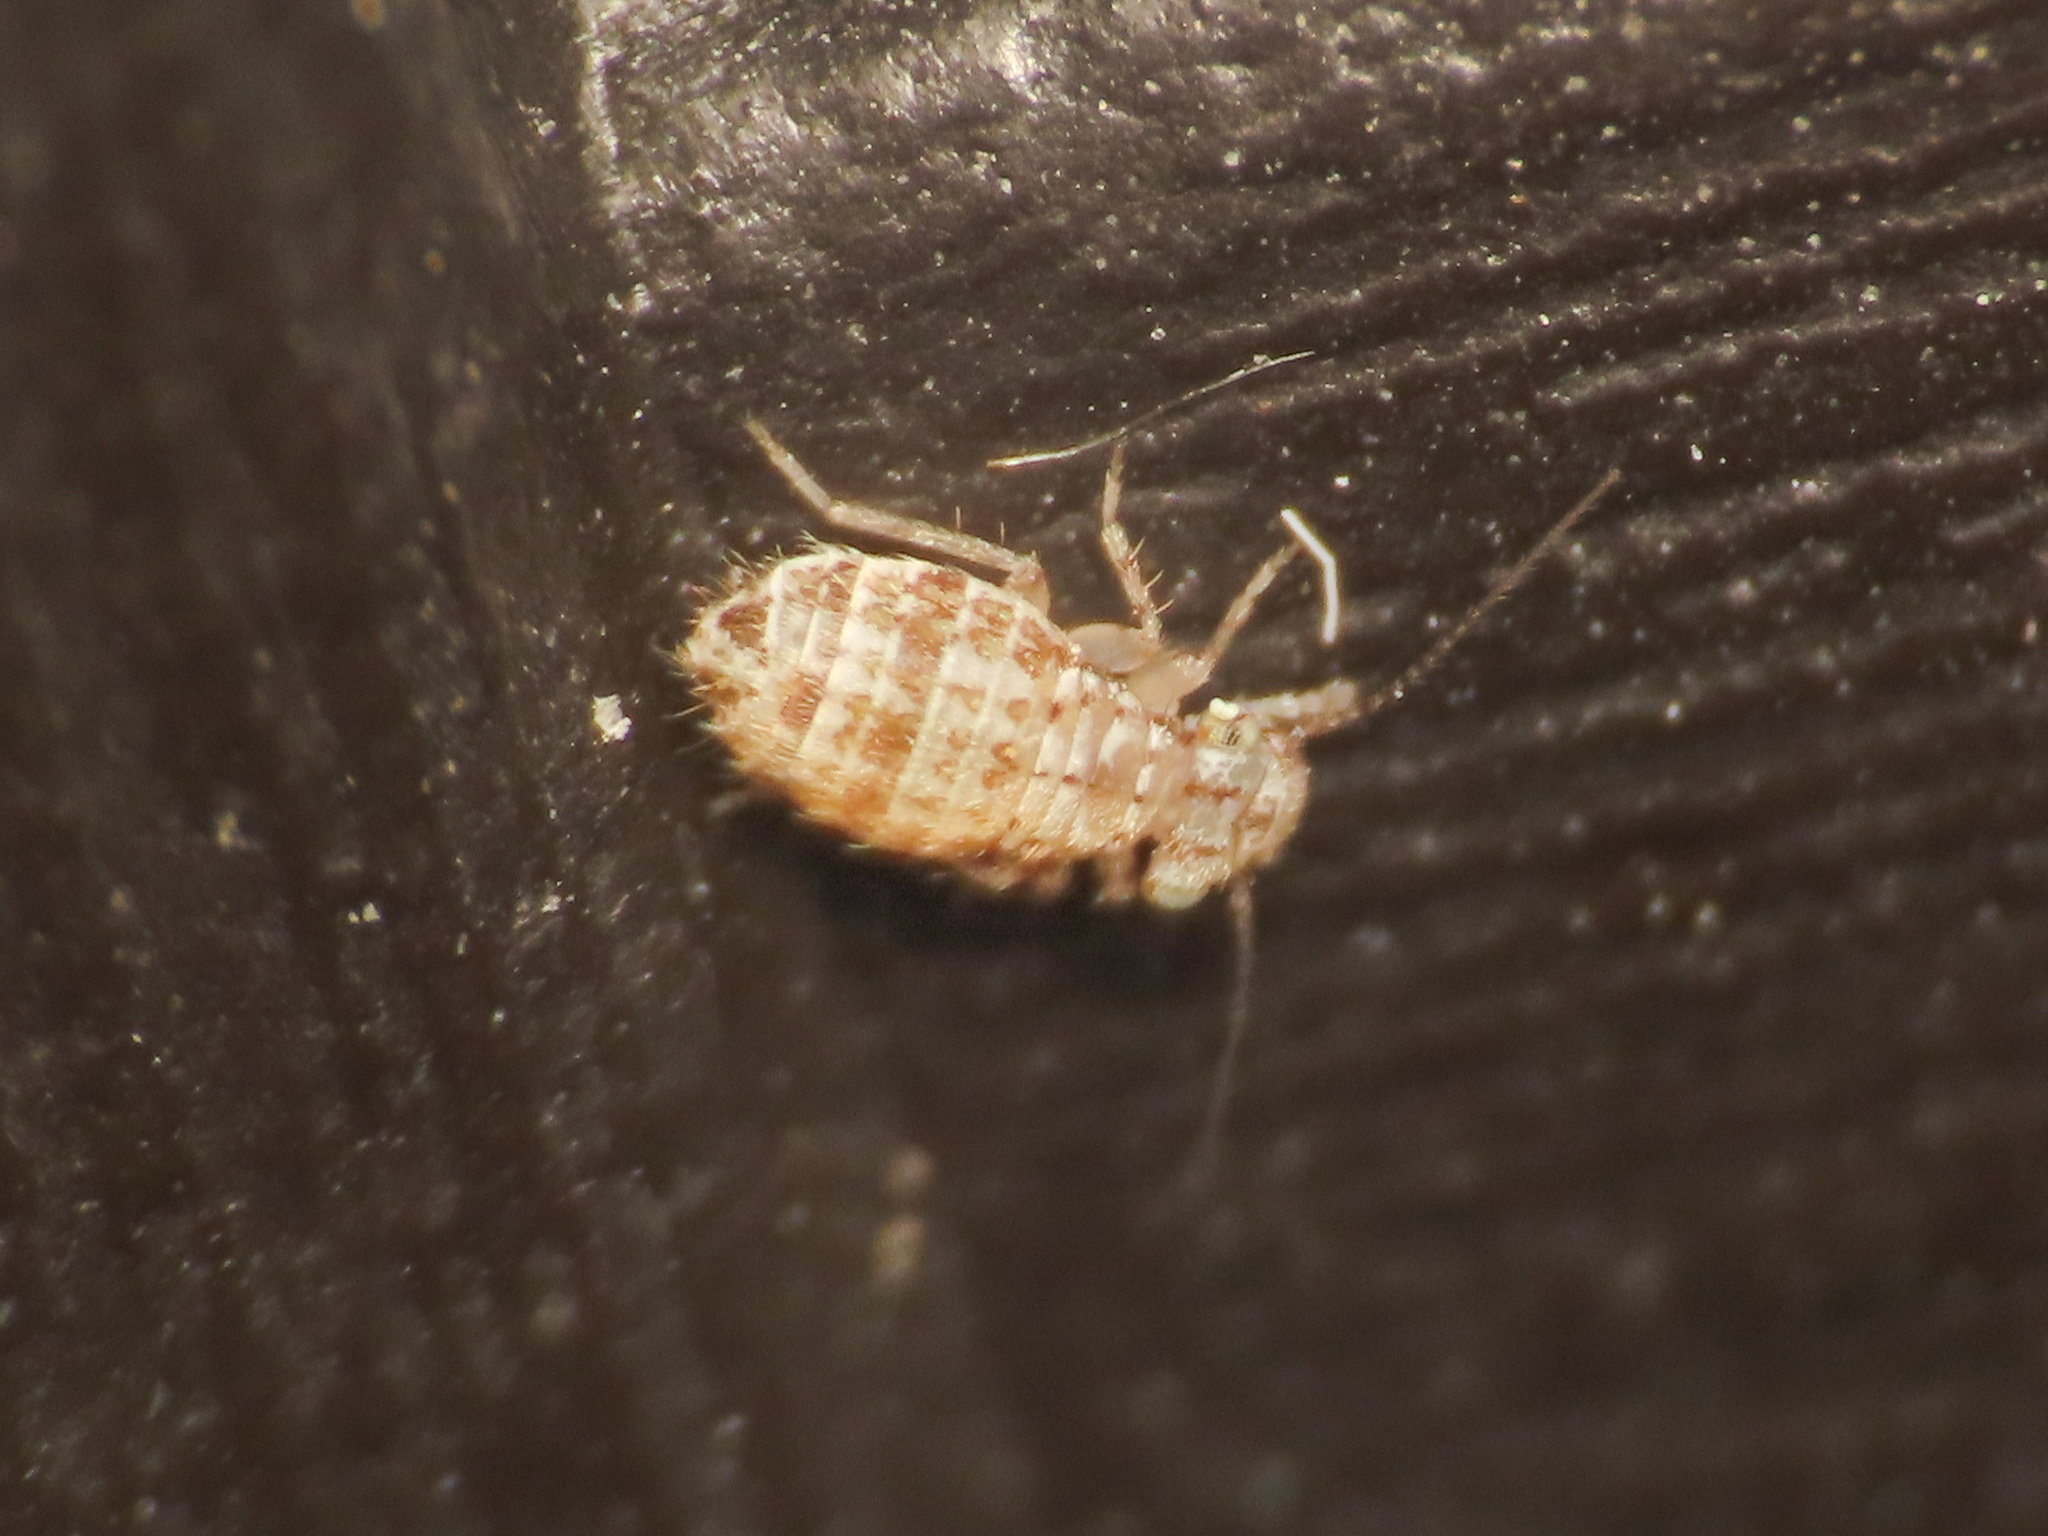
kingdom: Animalia
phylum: Arthropoda
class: Insecta
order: Psocodea
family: Trogiidae
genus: Cerobasis
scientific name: Cerobasis guestfalica
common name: Book lice
